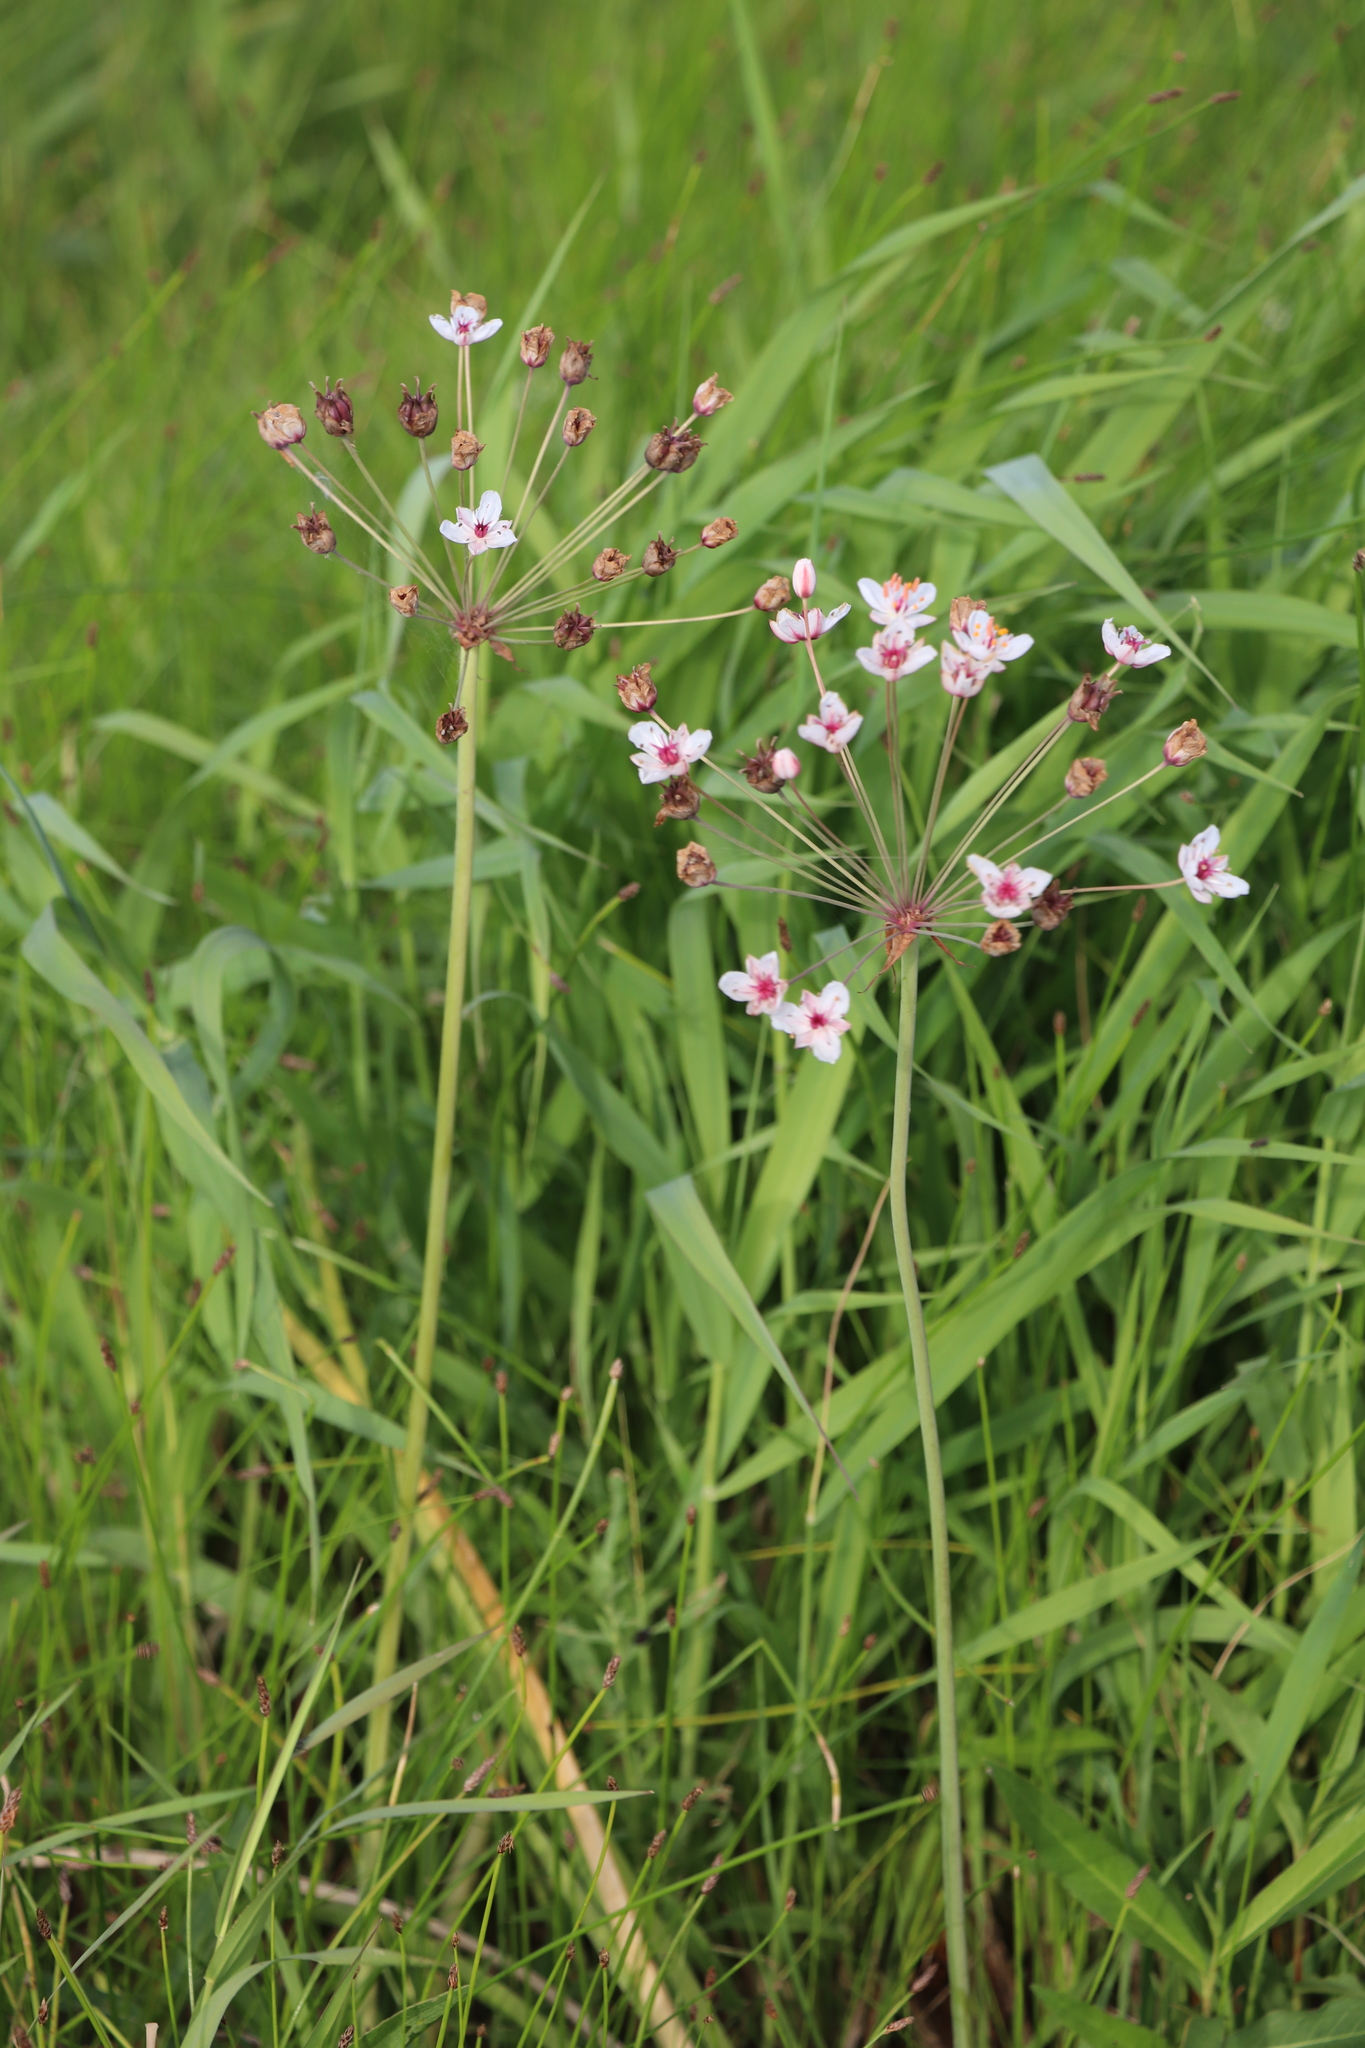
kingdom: Plantae
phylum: Tracheophyta
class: Liliopsida
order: Alismatales
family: Butomaceae
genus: Butomus
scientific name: Butomus umbellatus
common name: Flowering-rush
